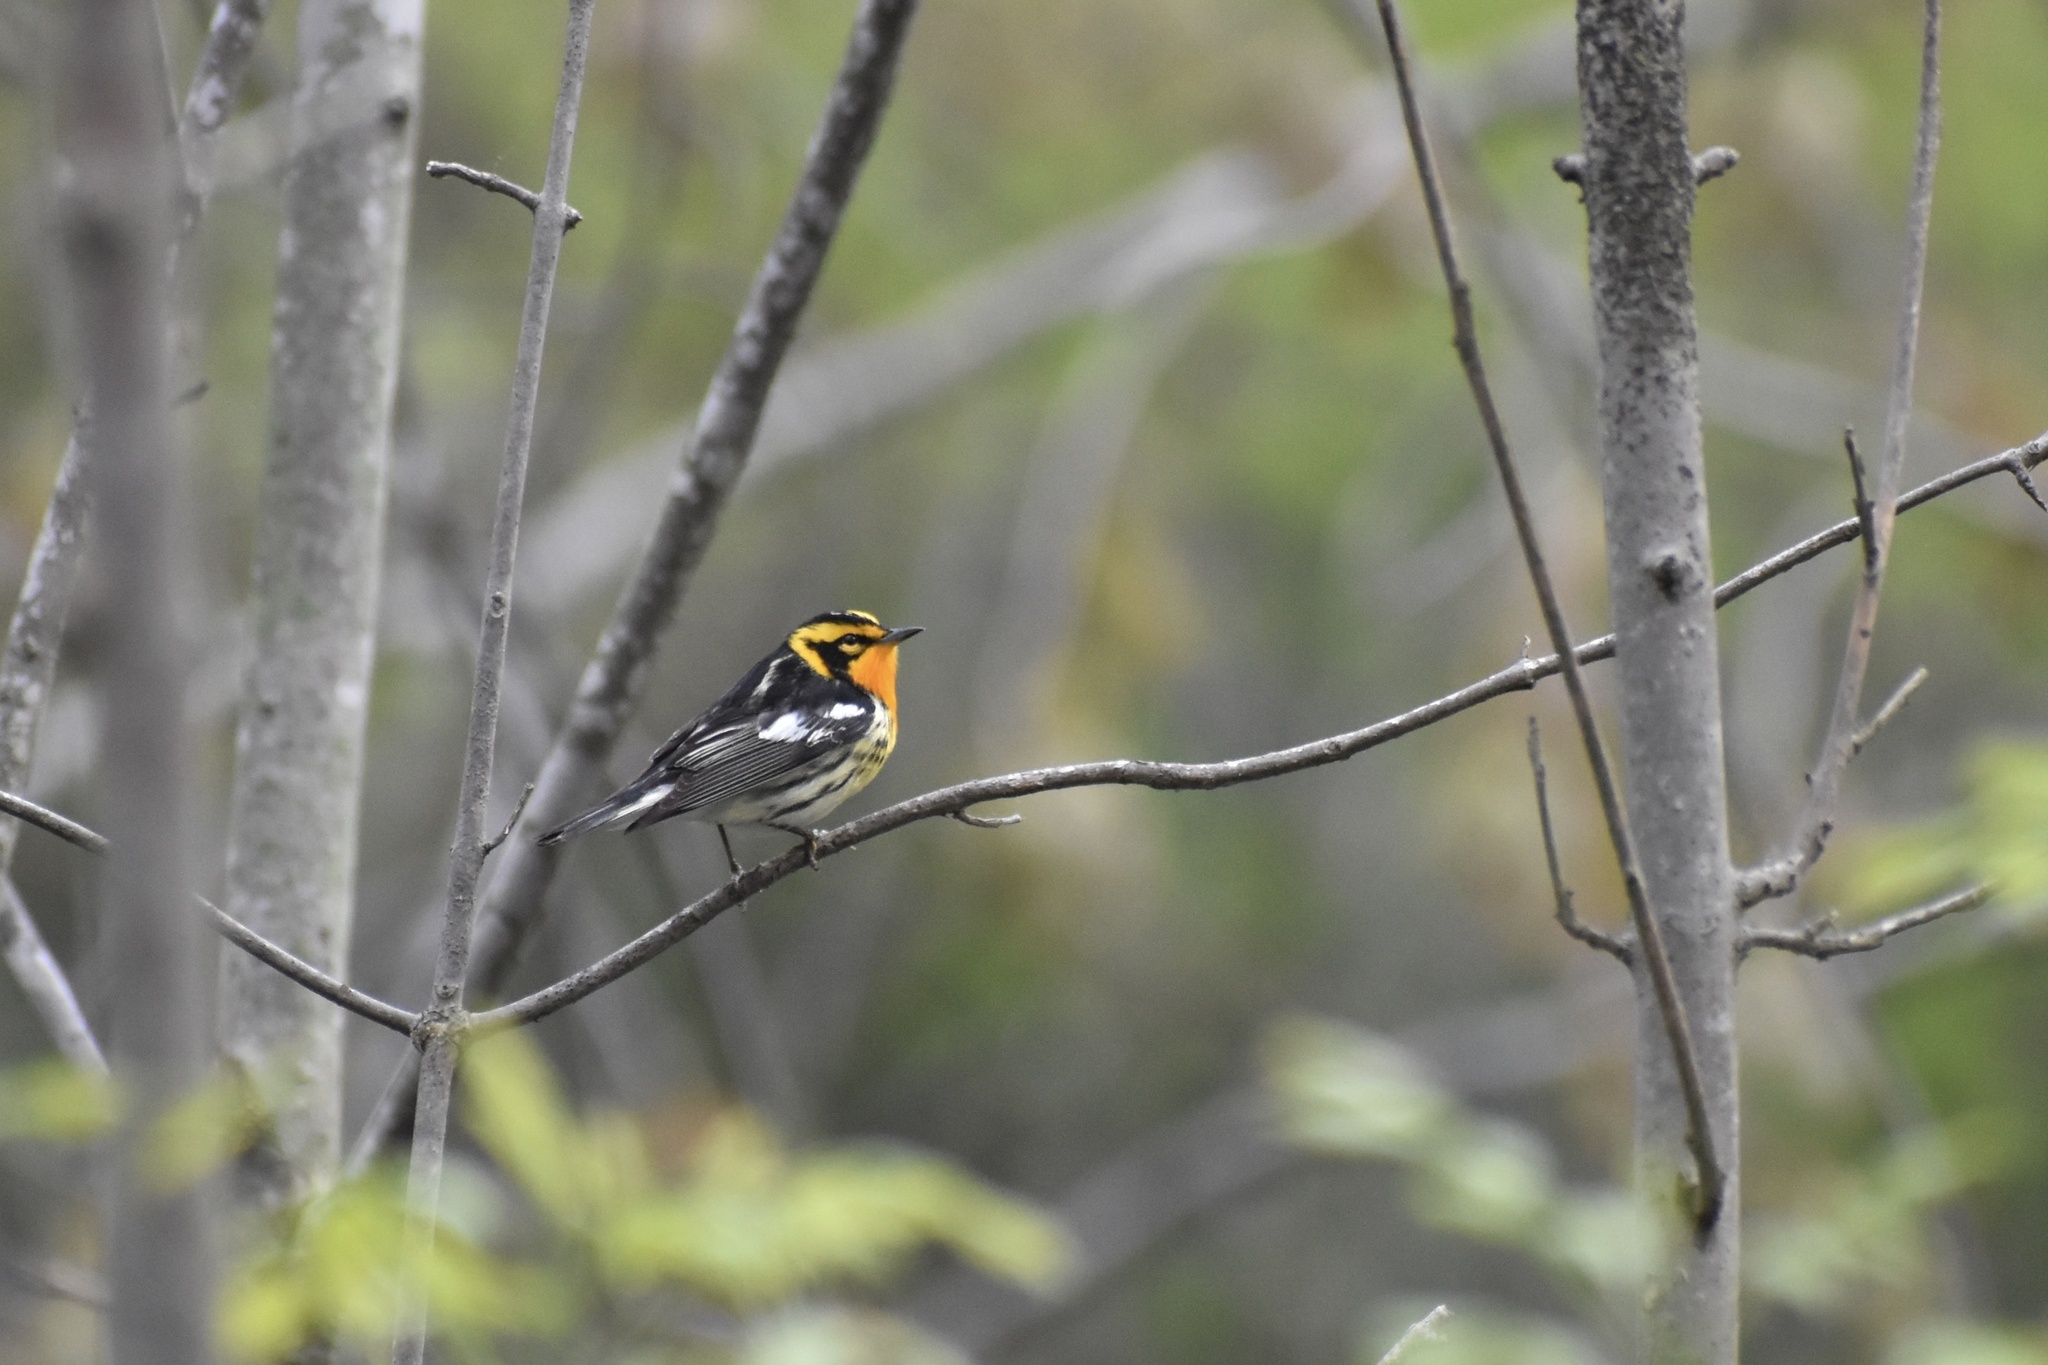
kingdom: Animalia
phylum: Chordata
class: Aves
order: Passeriformes
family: Parulidae
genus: Setophaga
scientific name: Setophaga fusca
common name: Blackburnian warbler
